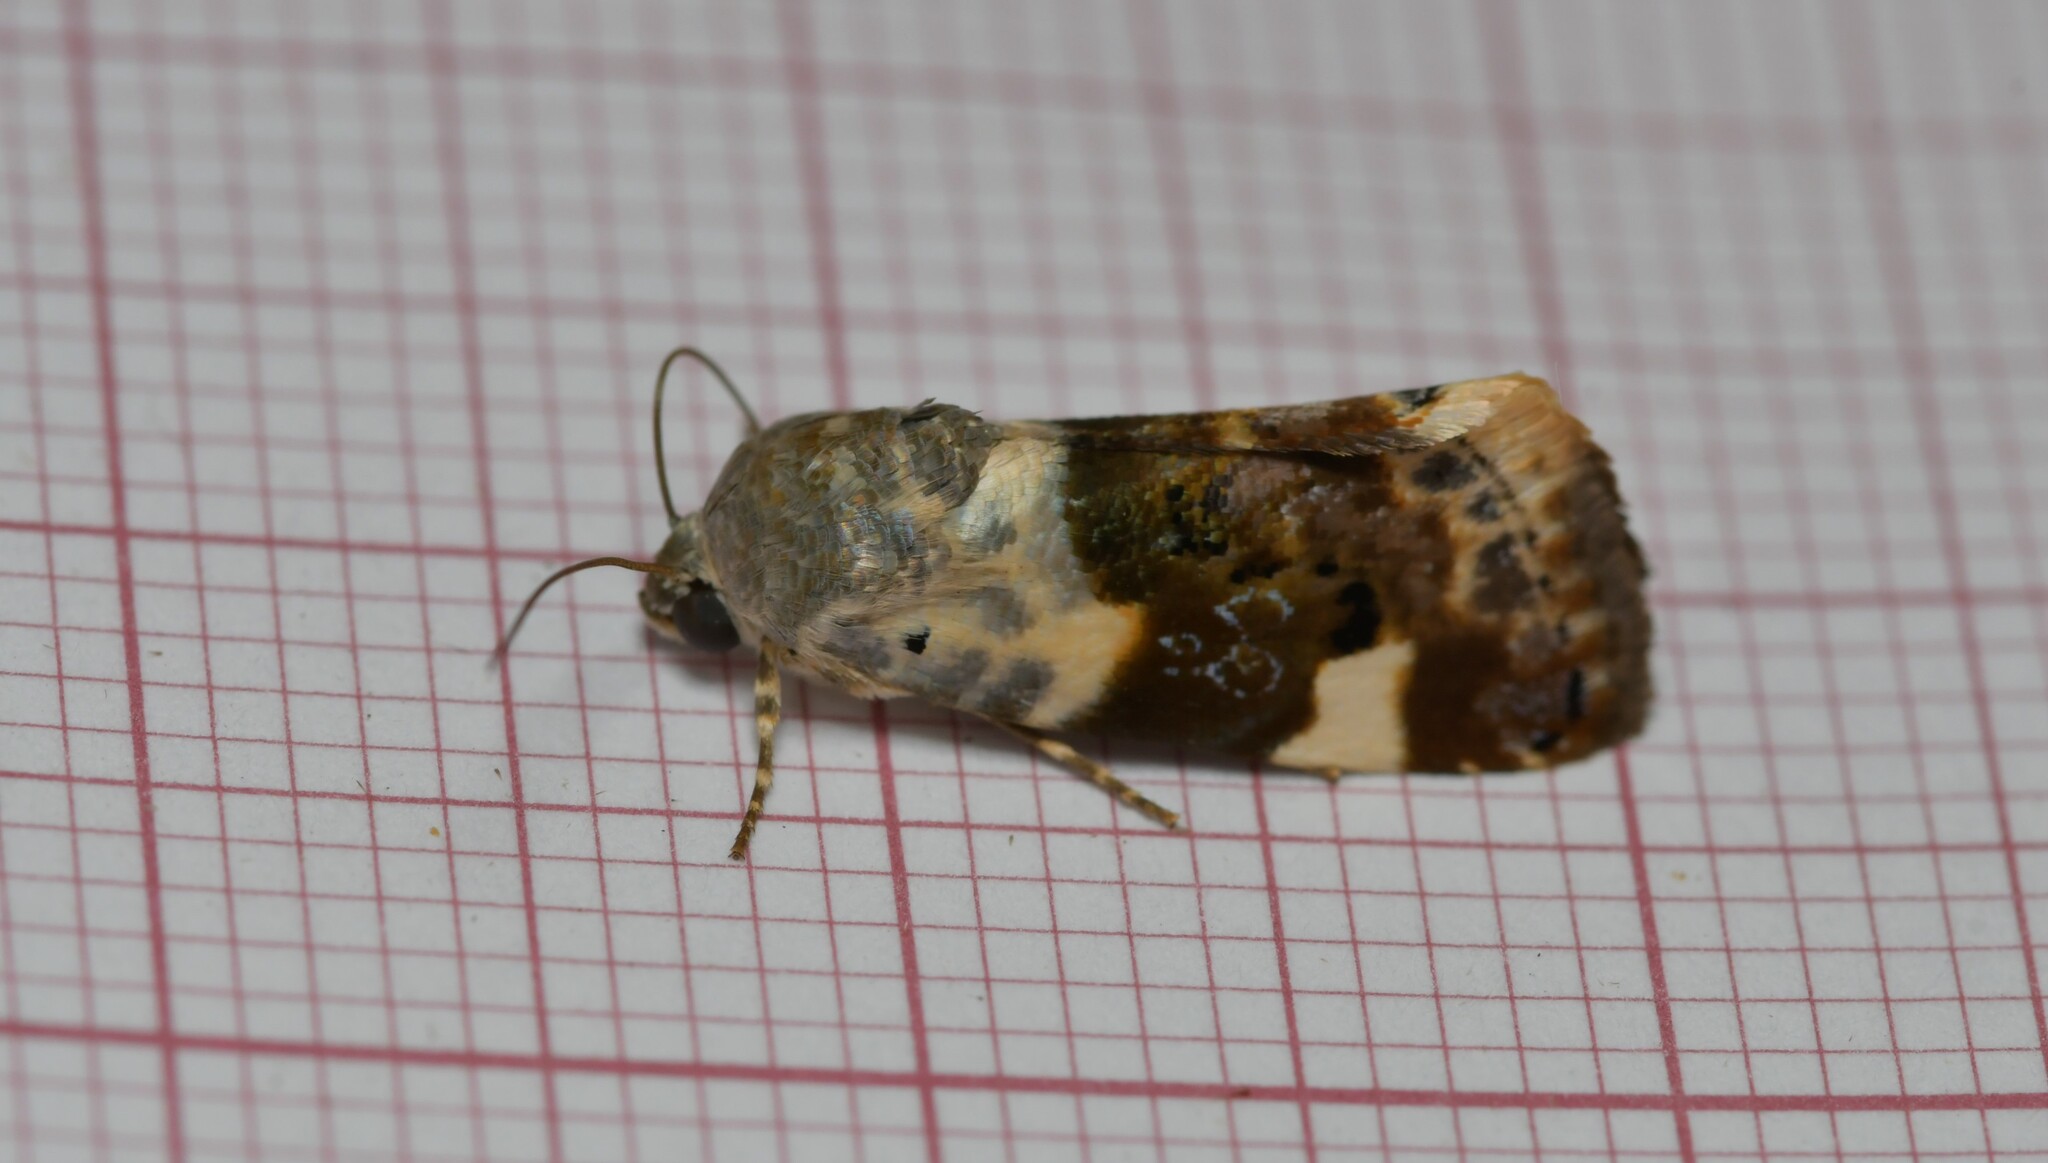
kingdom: Animalia
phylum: Arthropoda
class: Insecta
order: Lepidoptera
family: Noctuidae
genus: Acontia
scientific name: Acontia lucida
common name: Pale shoulder
